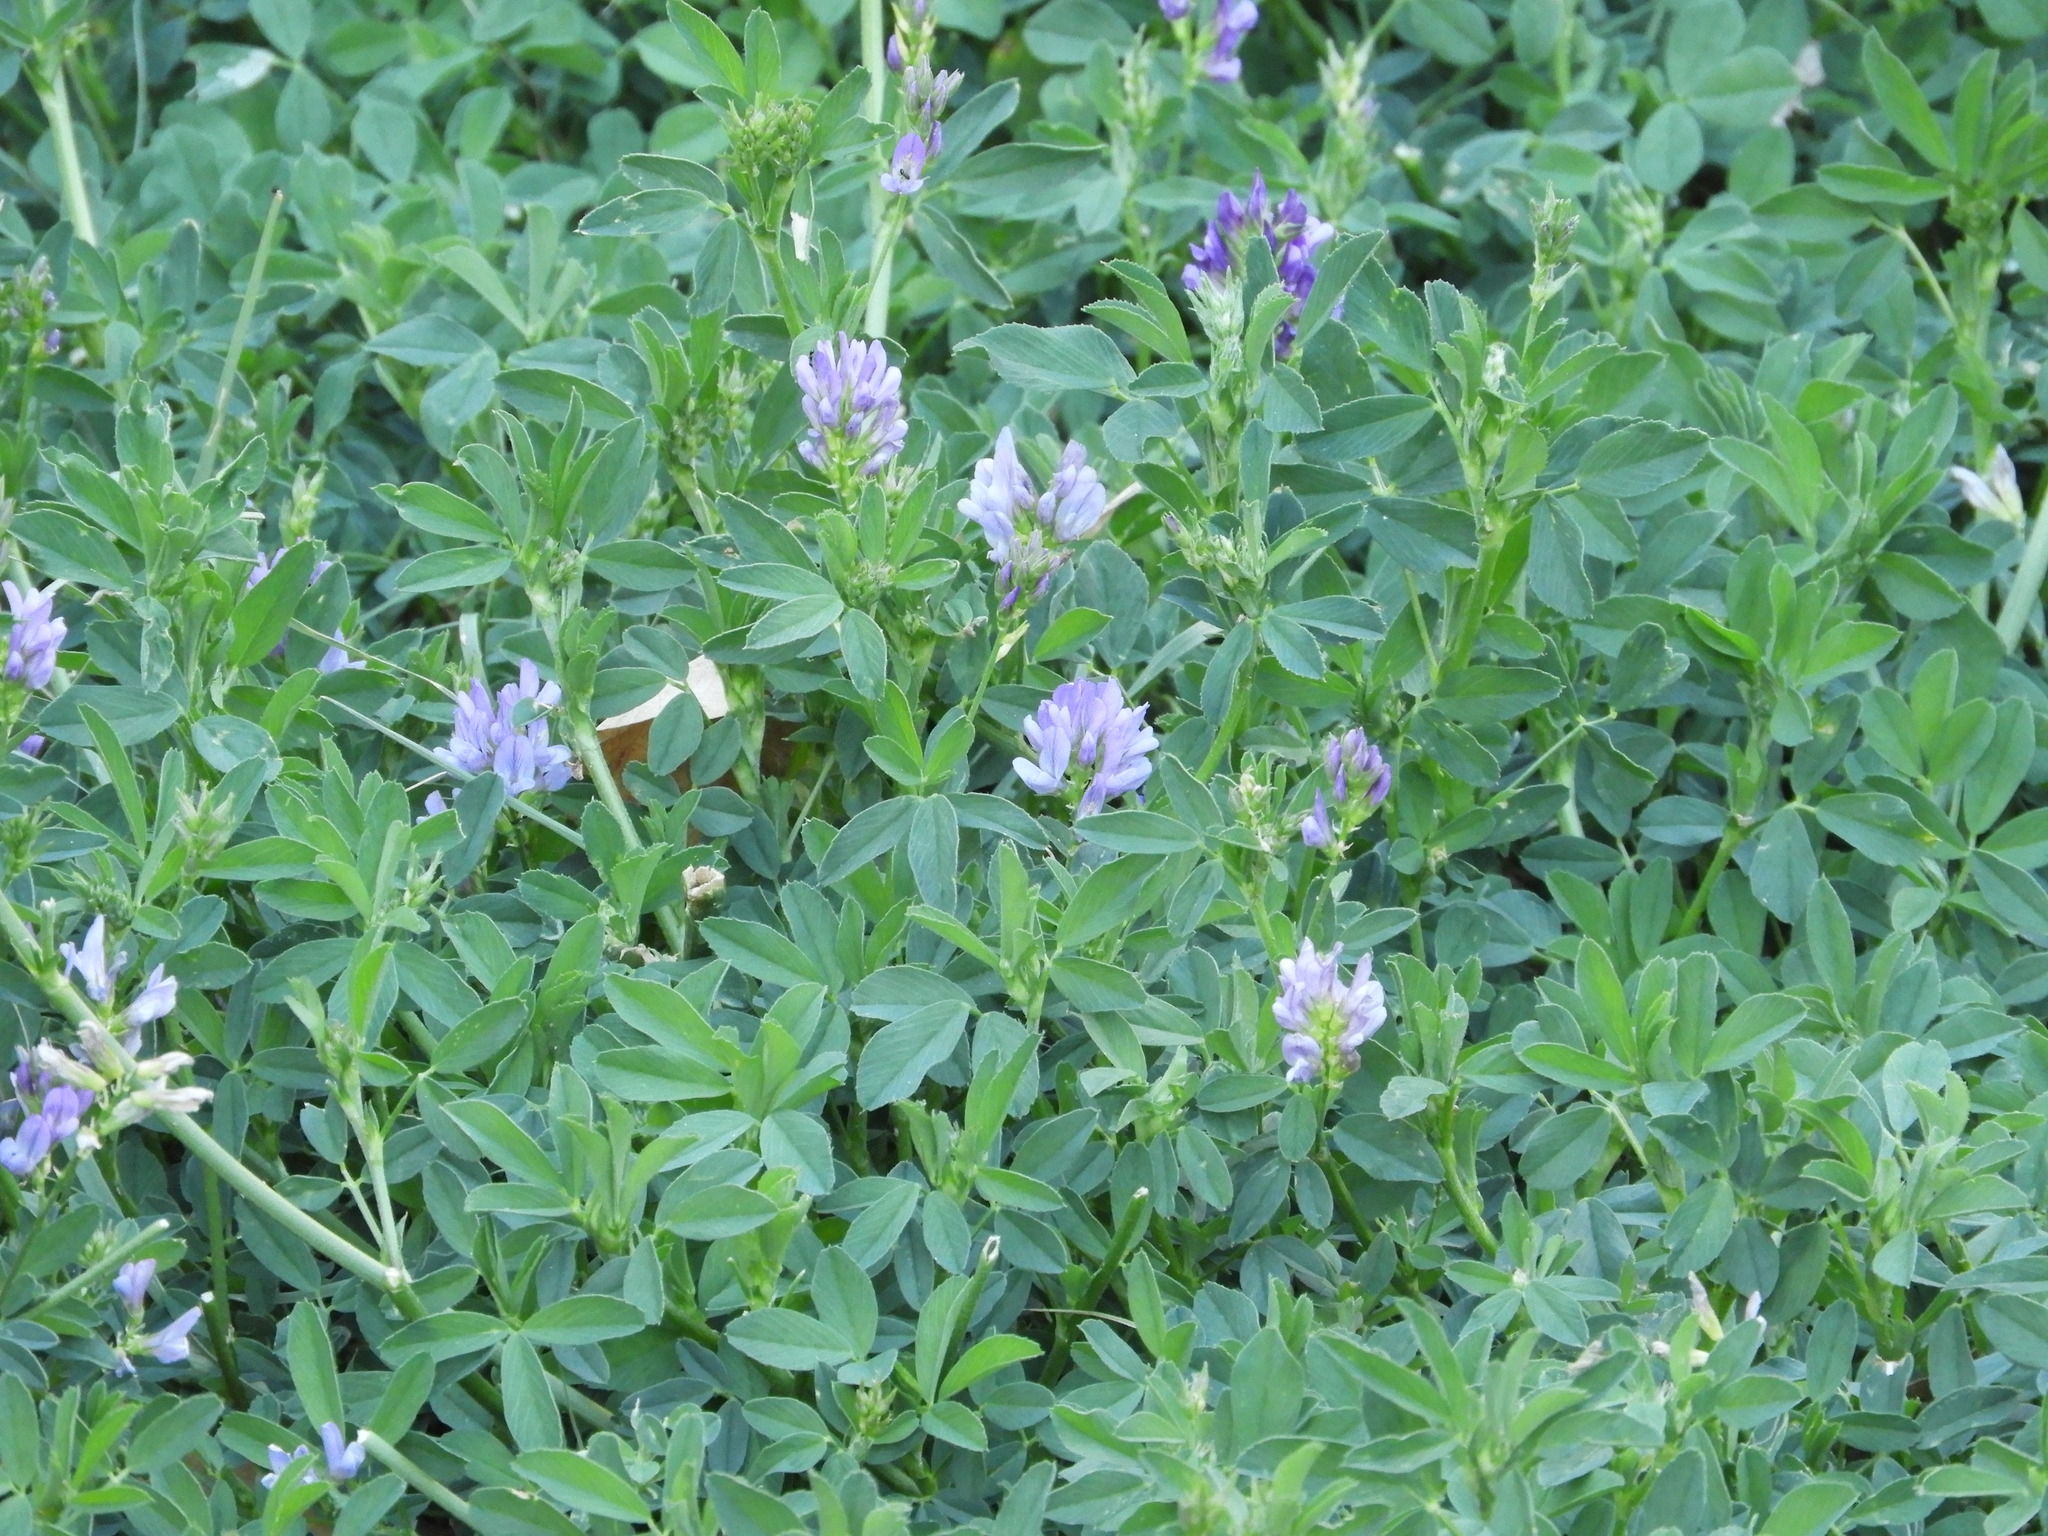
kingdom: Plantae
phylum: Tracheophyta
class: Magnoliopsida
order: Fabales
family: Fabaceae
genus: Medicago
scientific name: Medicago sativa
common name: Alfalfa
